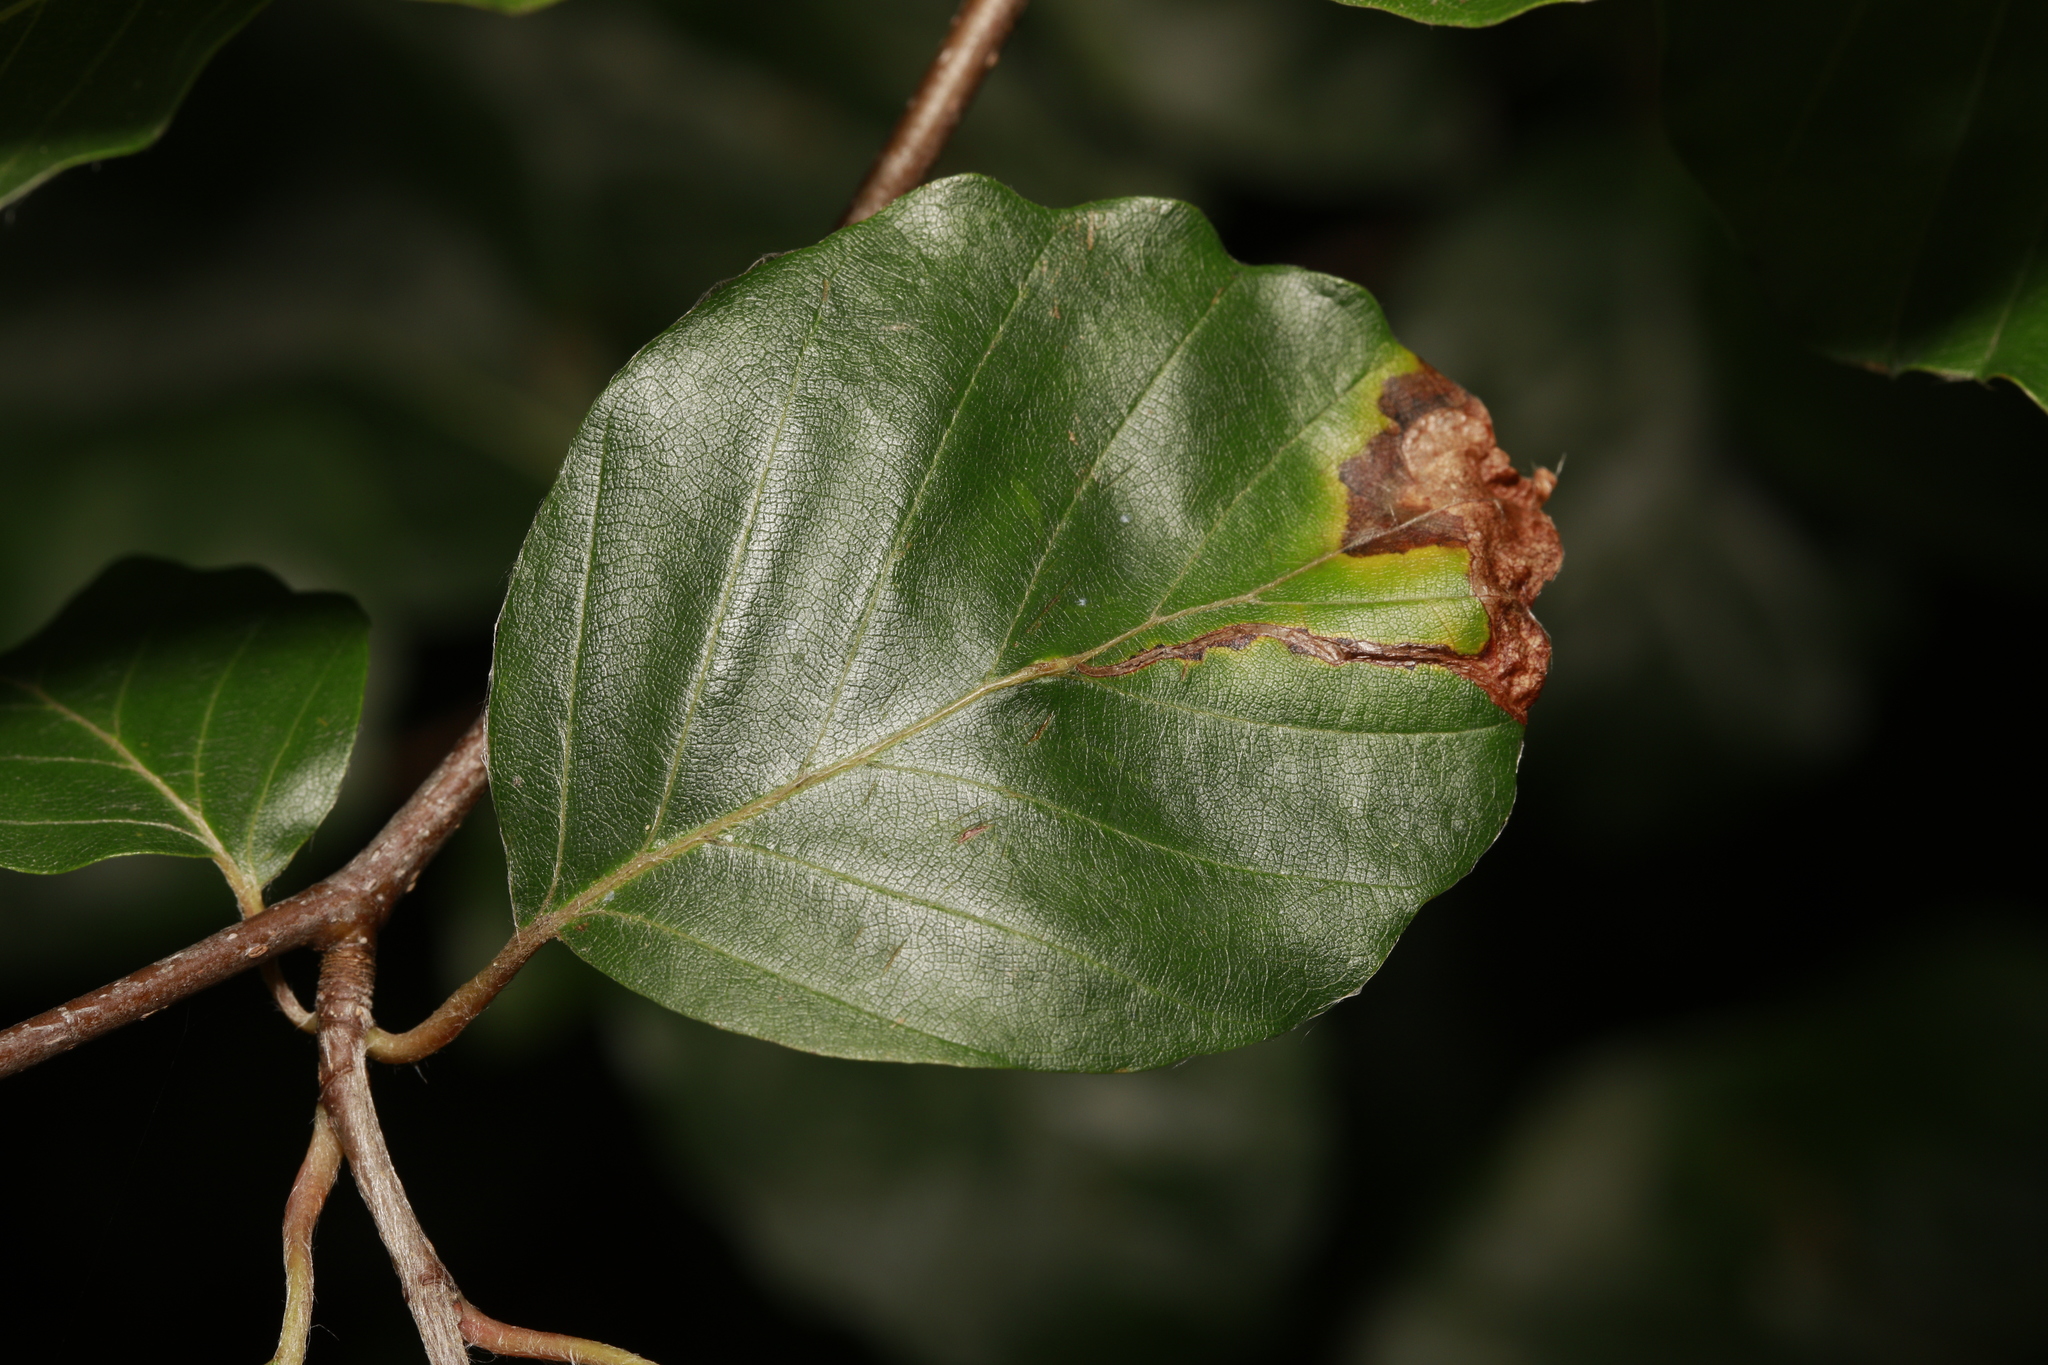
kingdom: Animalia
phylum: Arthropoda
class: Insecta
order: Coleoptera
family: Curculionidae
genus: Orchestes
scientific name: Orchestes fagi
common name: Beech leaf miner
